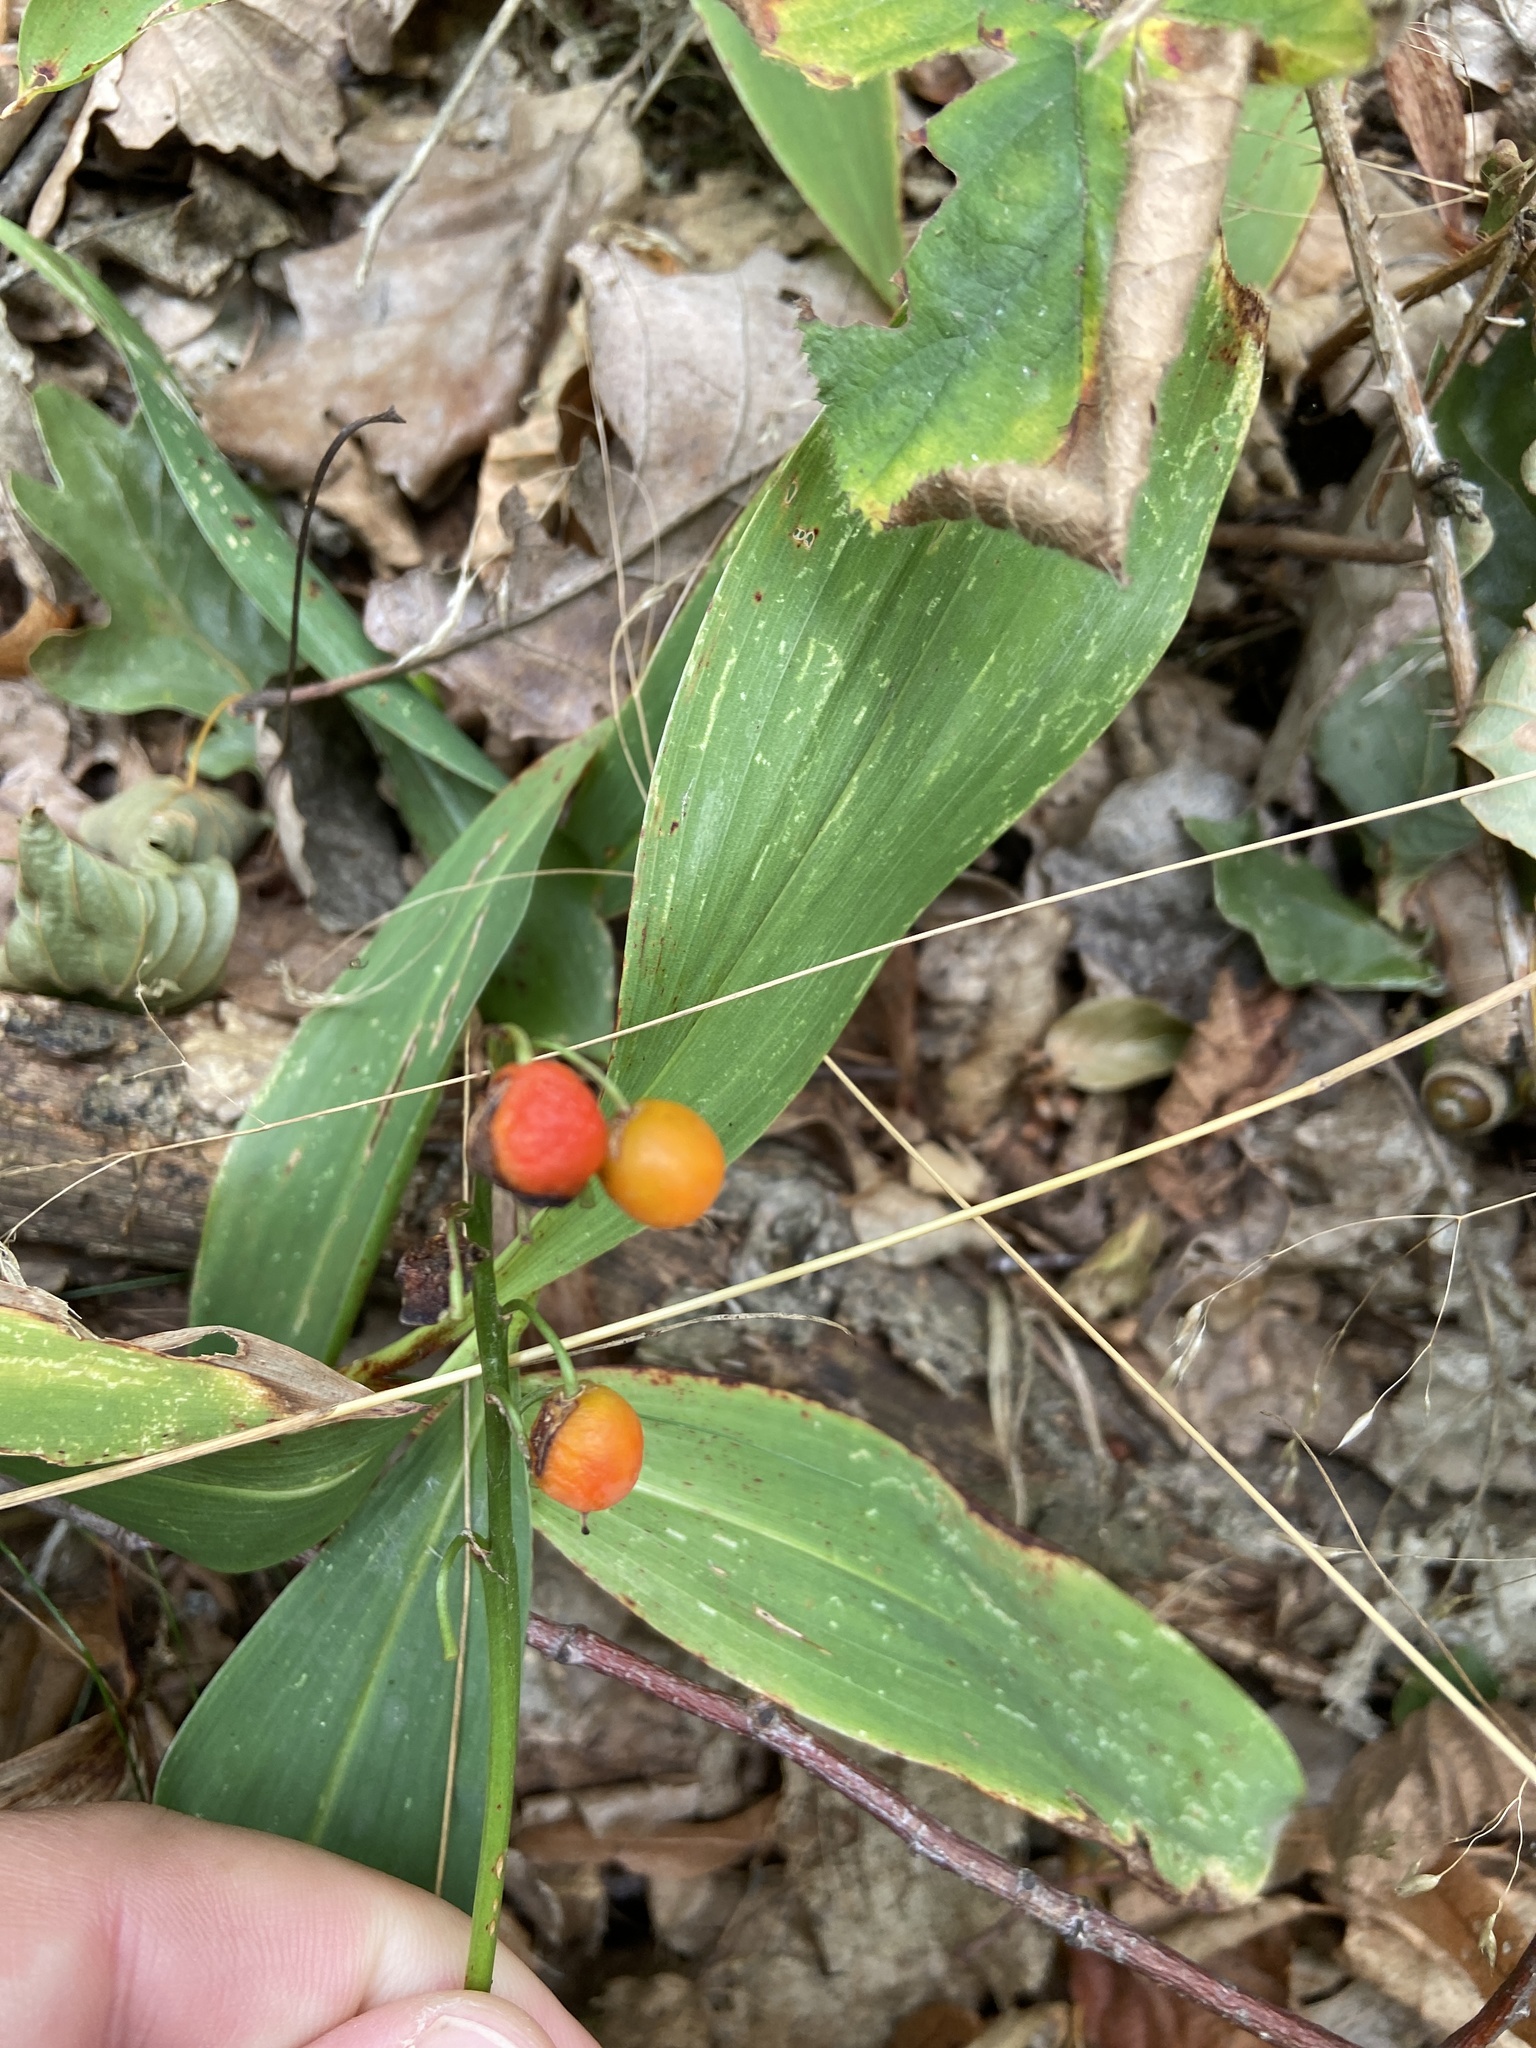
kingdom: Plantae
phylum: Tracheophyta
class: Liliopsida
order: Asparagales
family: Asparagaceae
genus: Convallaria
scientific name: Convallaria majalis
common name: Lily-of-the-valley
